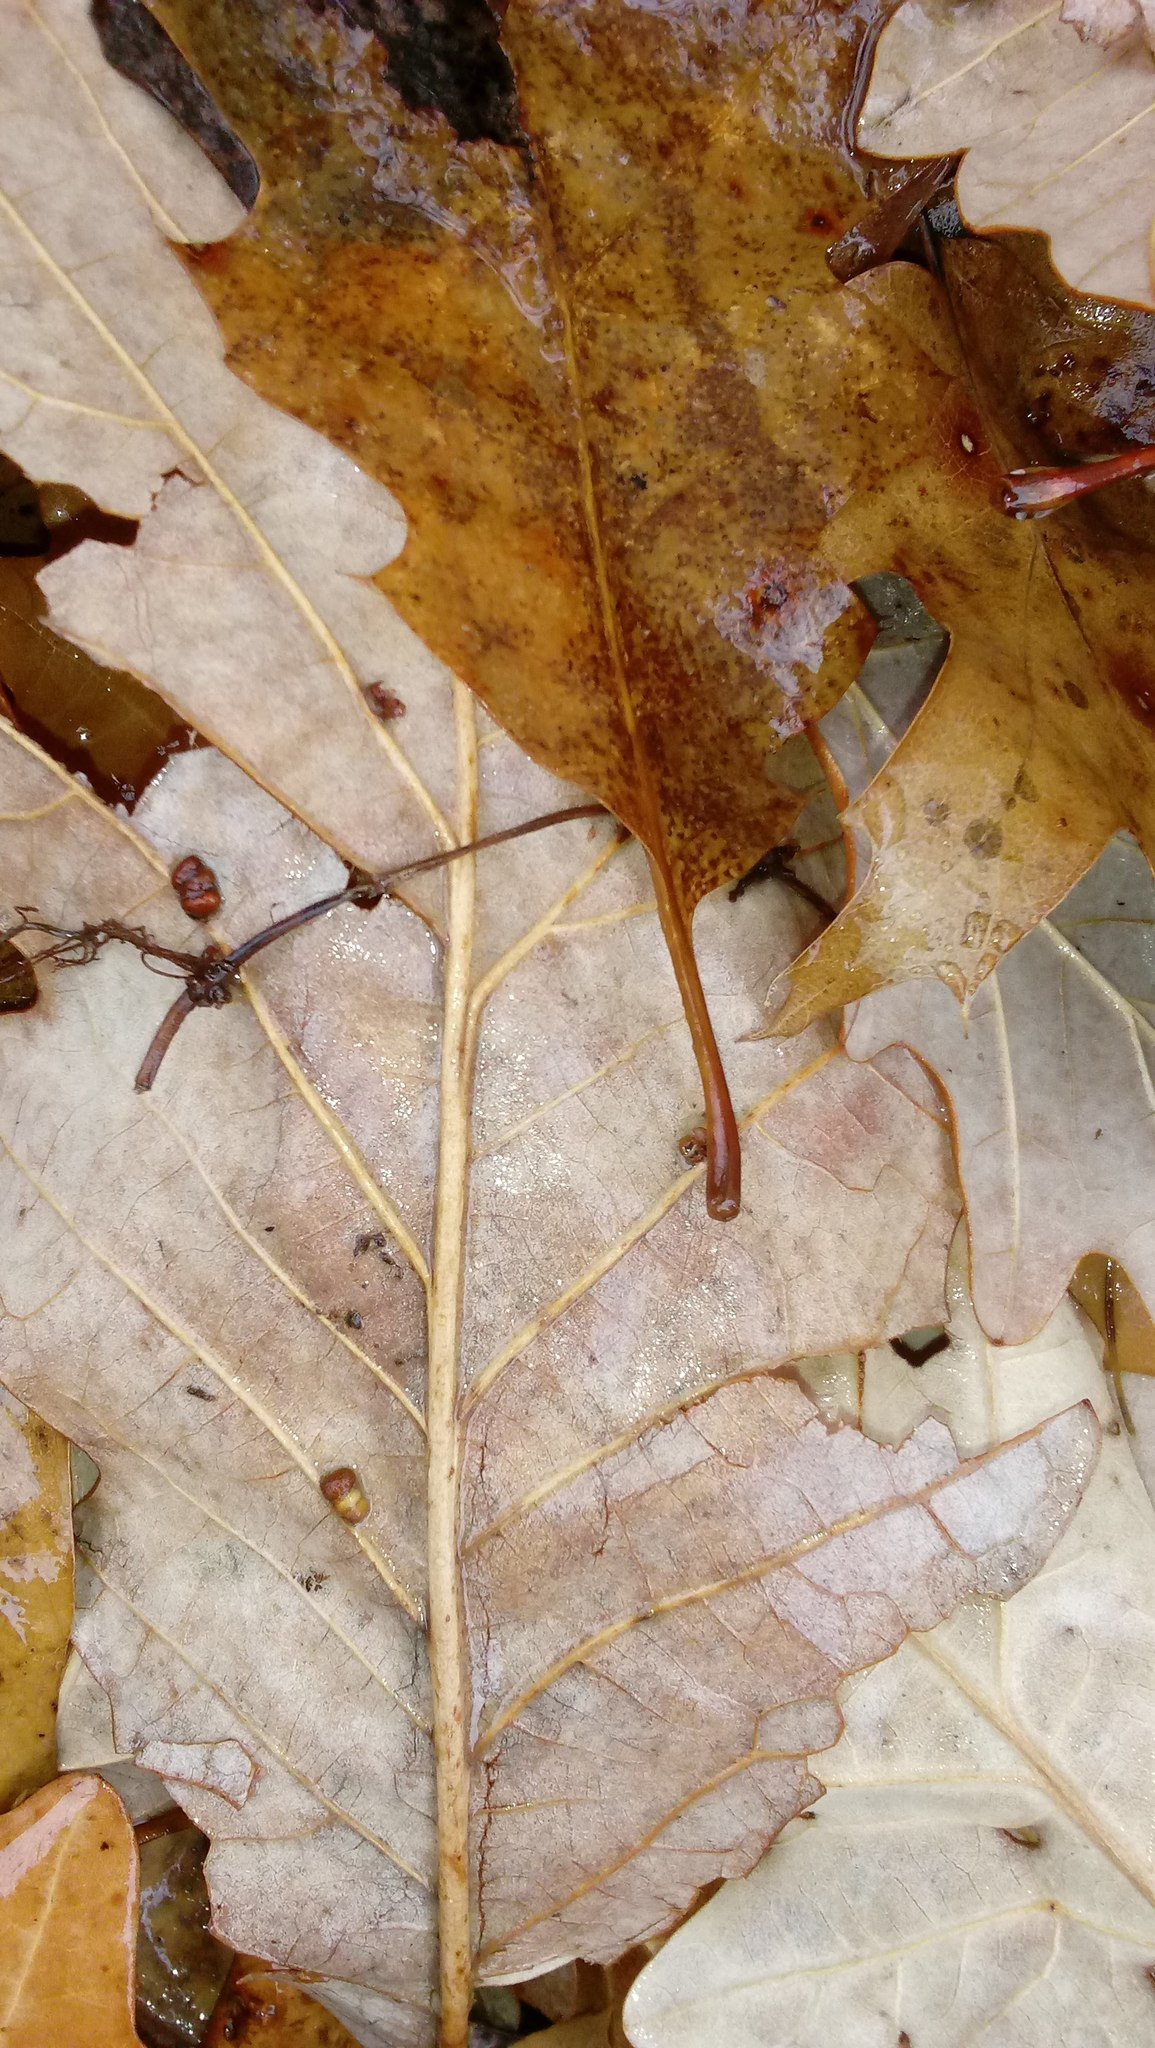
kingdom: Animalia
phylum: Arthropoda
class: Insecta
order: Hymenoptera
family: Cynipidae
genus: Andricus
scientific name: Andricus Druon ignotum
